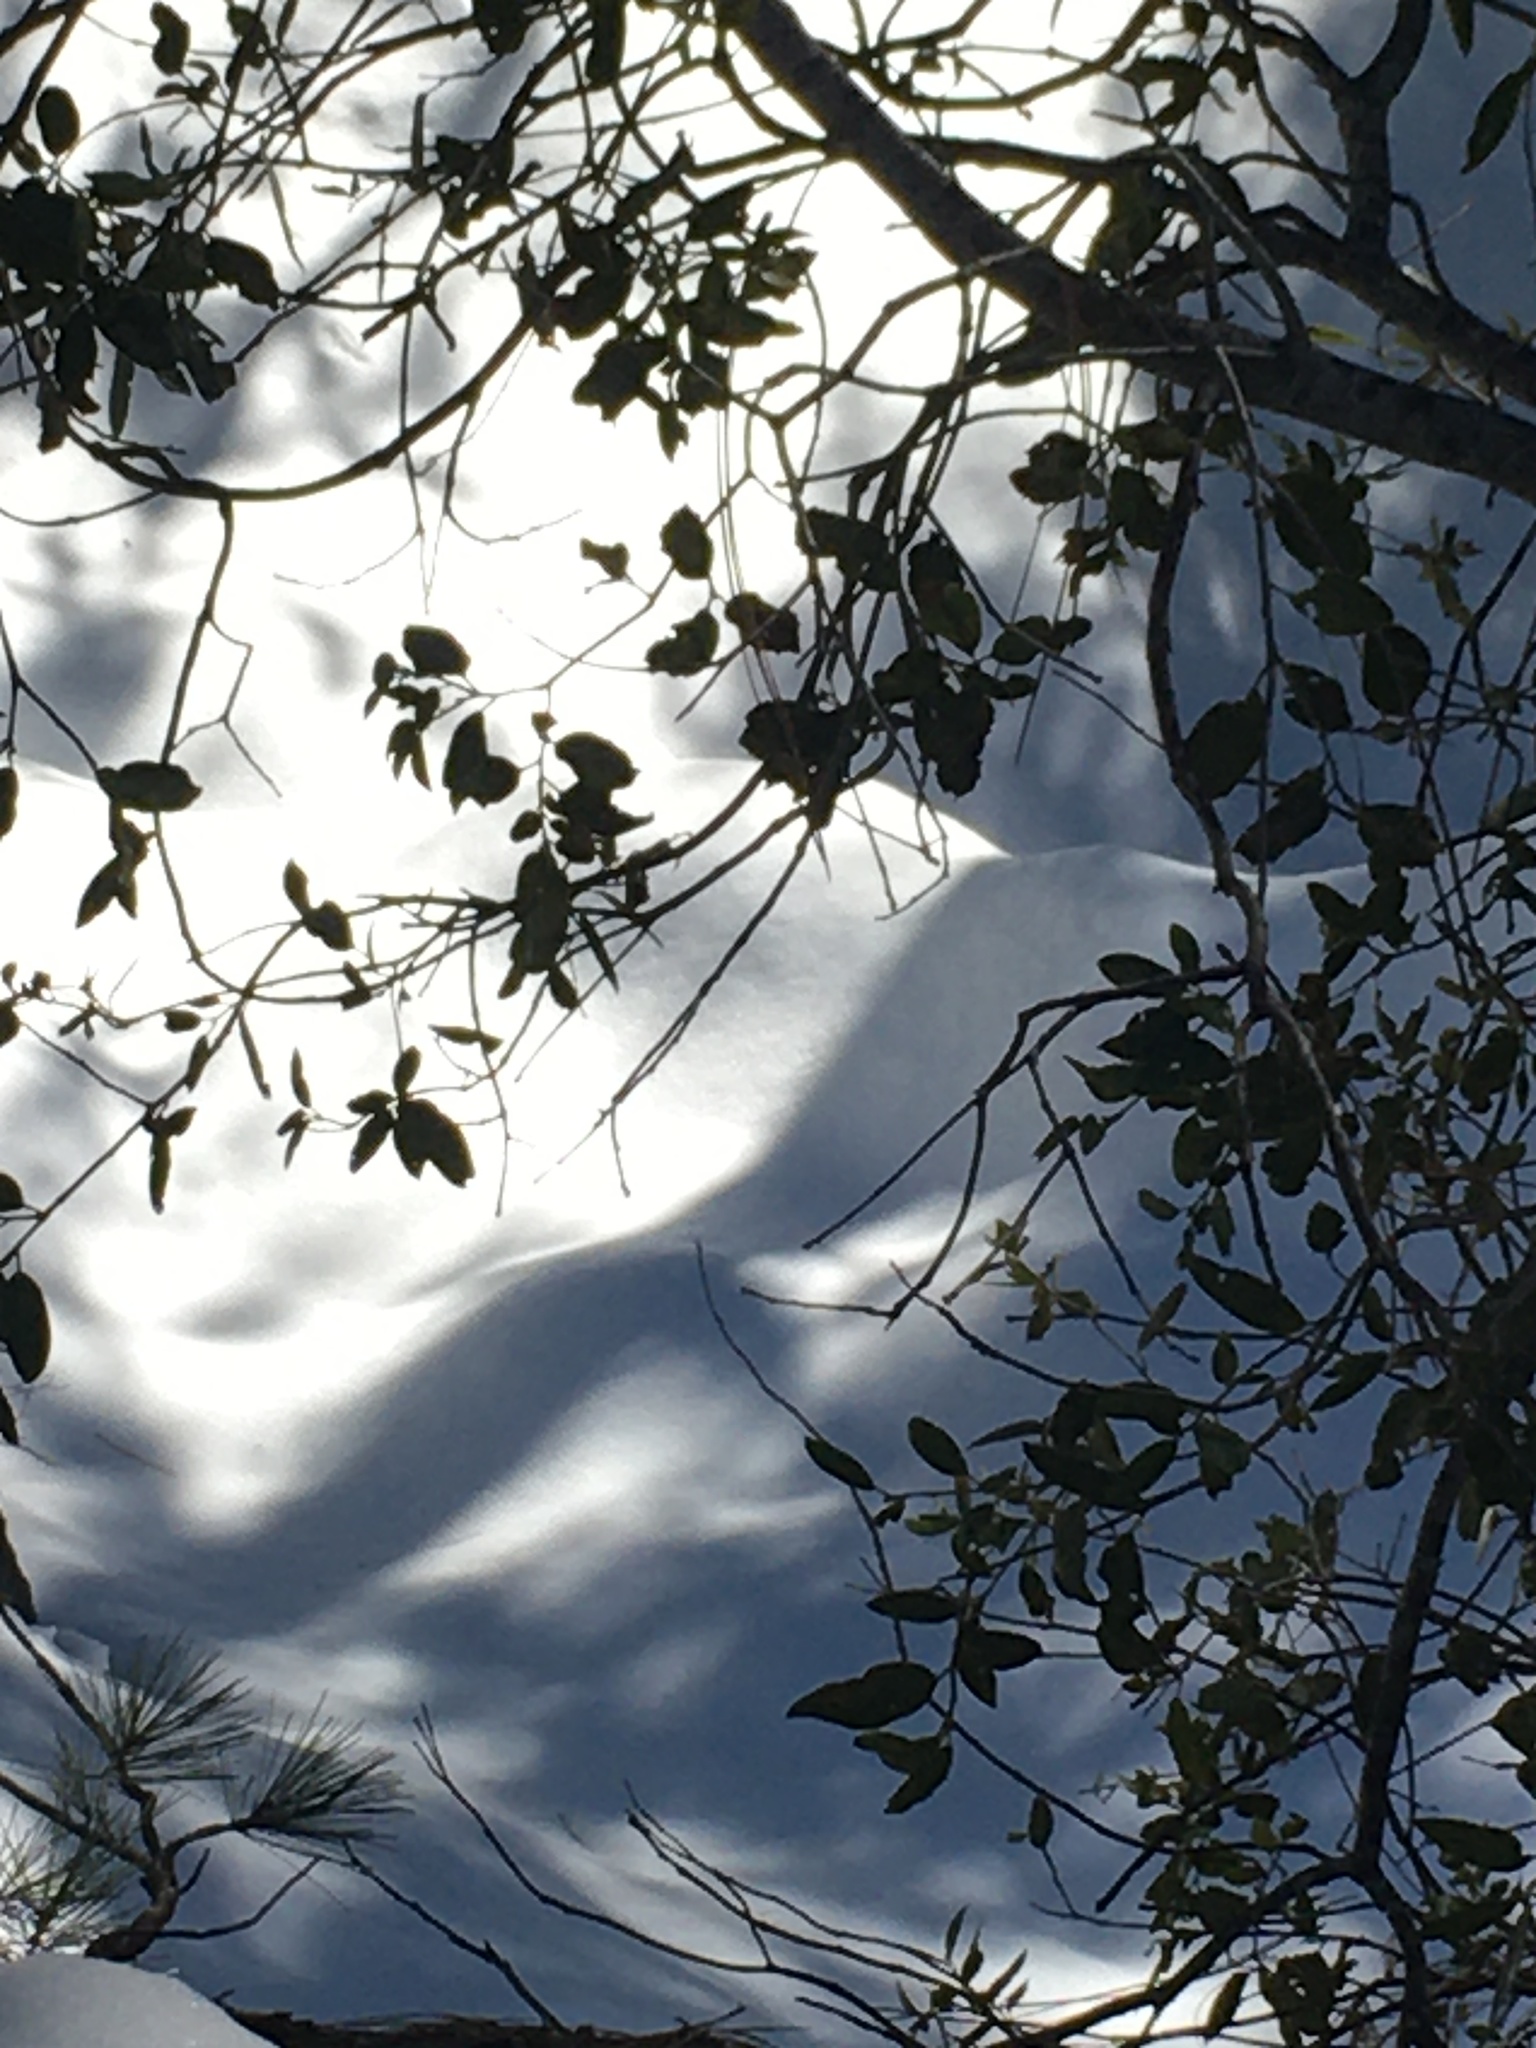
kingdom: Plantae
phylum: Tracheophyta
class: Magnoliopsida
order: Fagales
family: Fagaceae
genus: Quercus
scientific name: Quercus chrysolepis
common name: Canyon live oak
